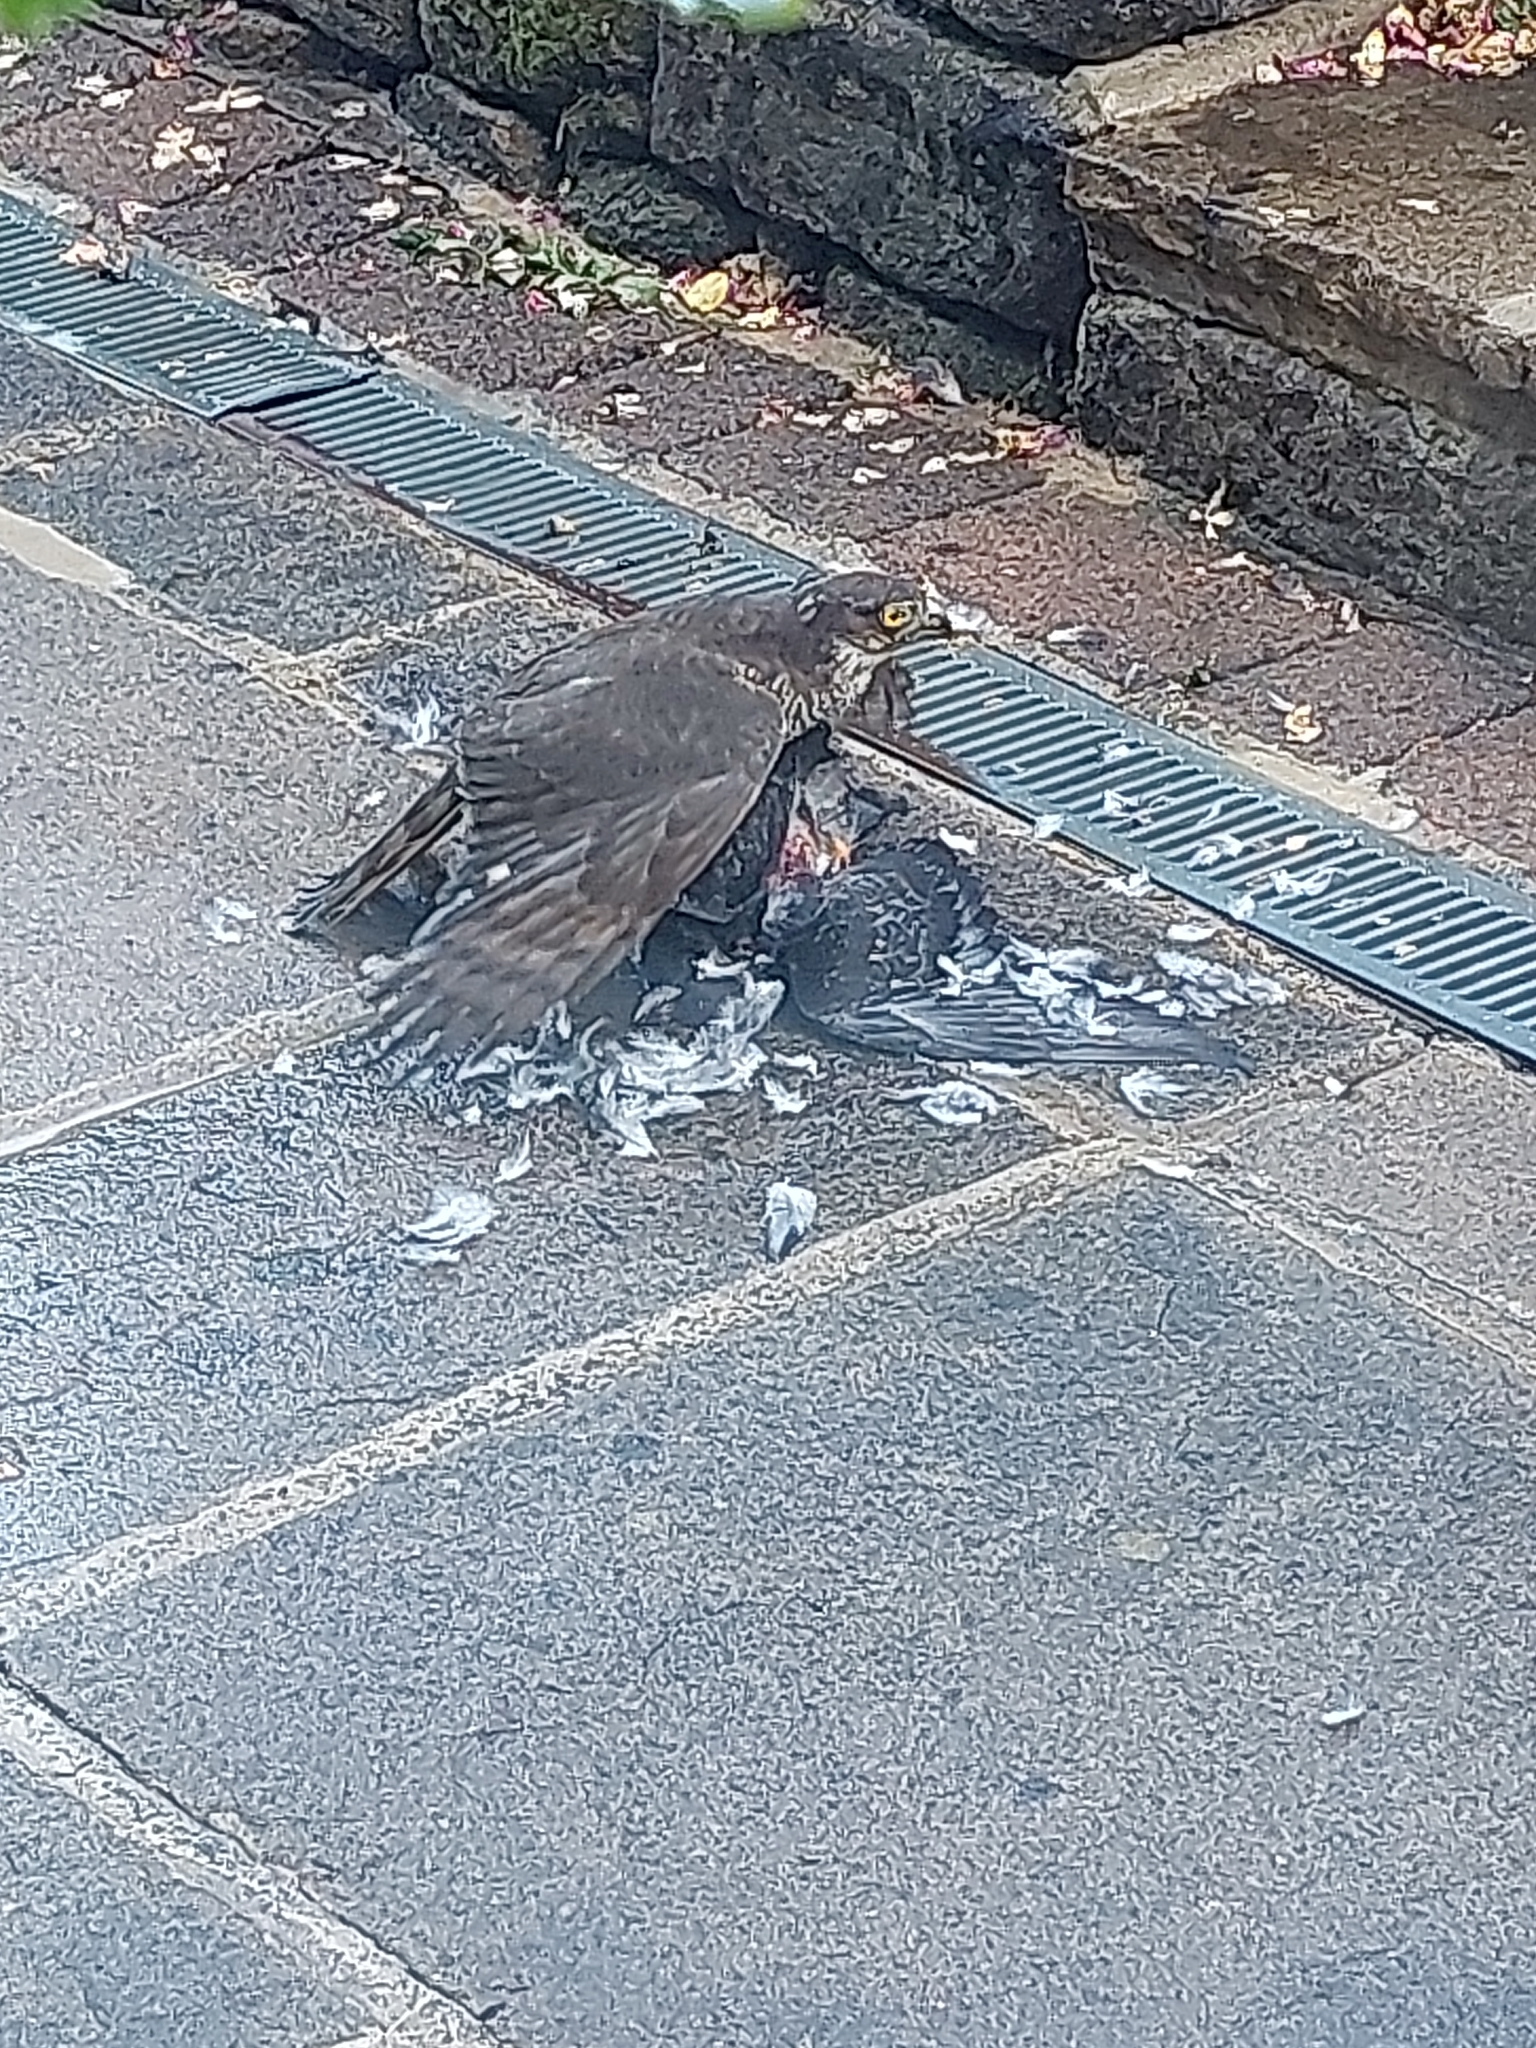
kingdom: Animalia
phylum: Chordata
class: Aves
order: Accipitriformes
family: Accipitridae
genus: Accipiter
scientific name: Accipiter nisus
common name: Eurasian sparrowhawk
